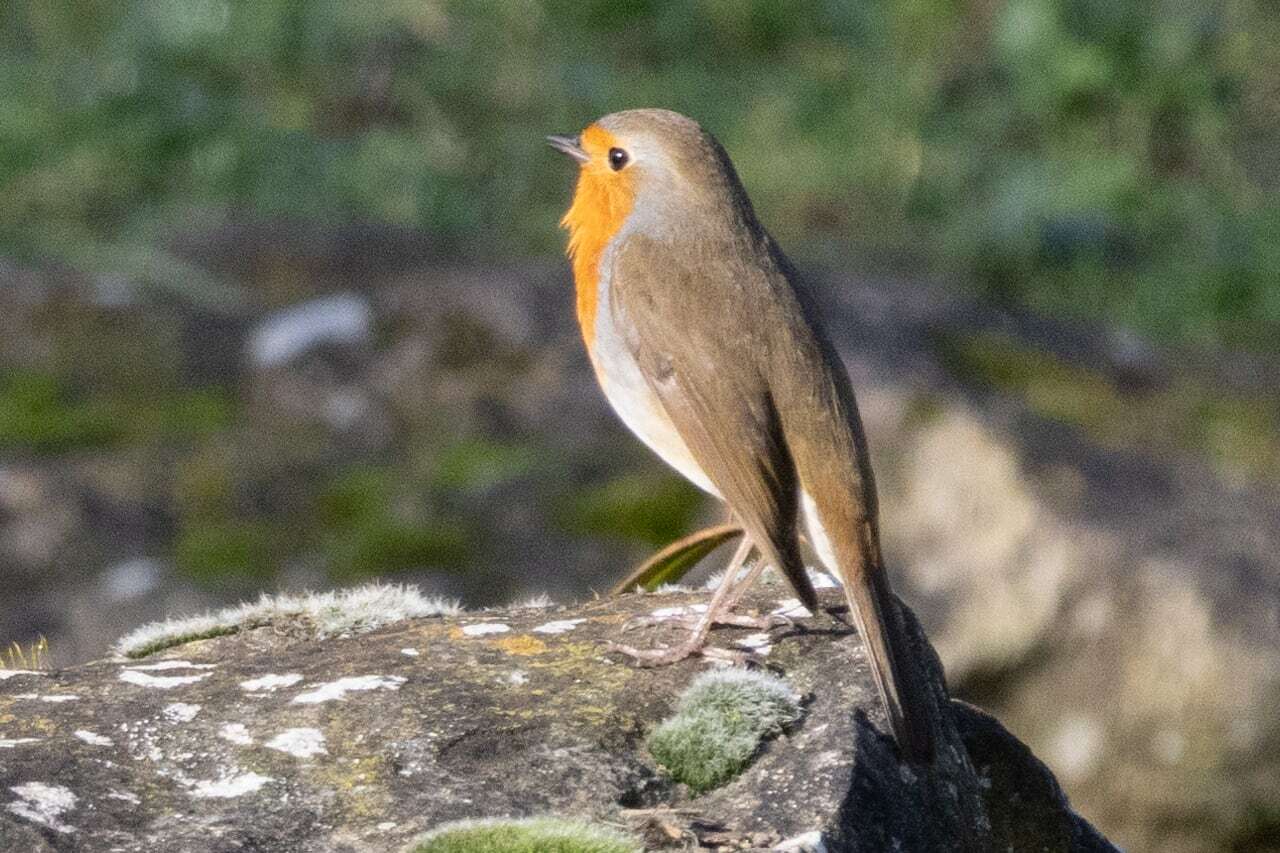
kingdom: Animalia
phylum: Chordata
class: Aves
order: Passeriformes
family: Muscicapidae
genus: Erithacus
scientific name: Erithacus rubecula
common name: European robin
